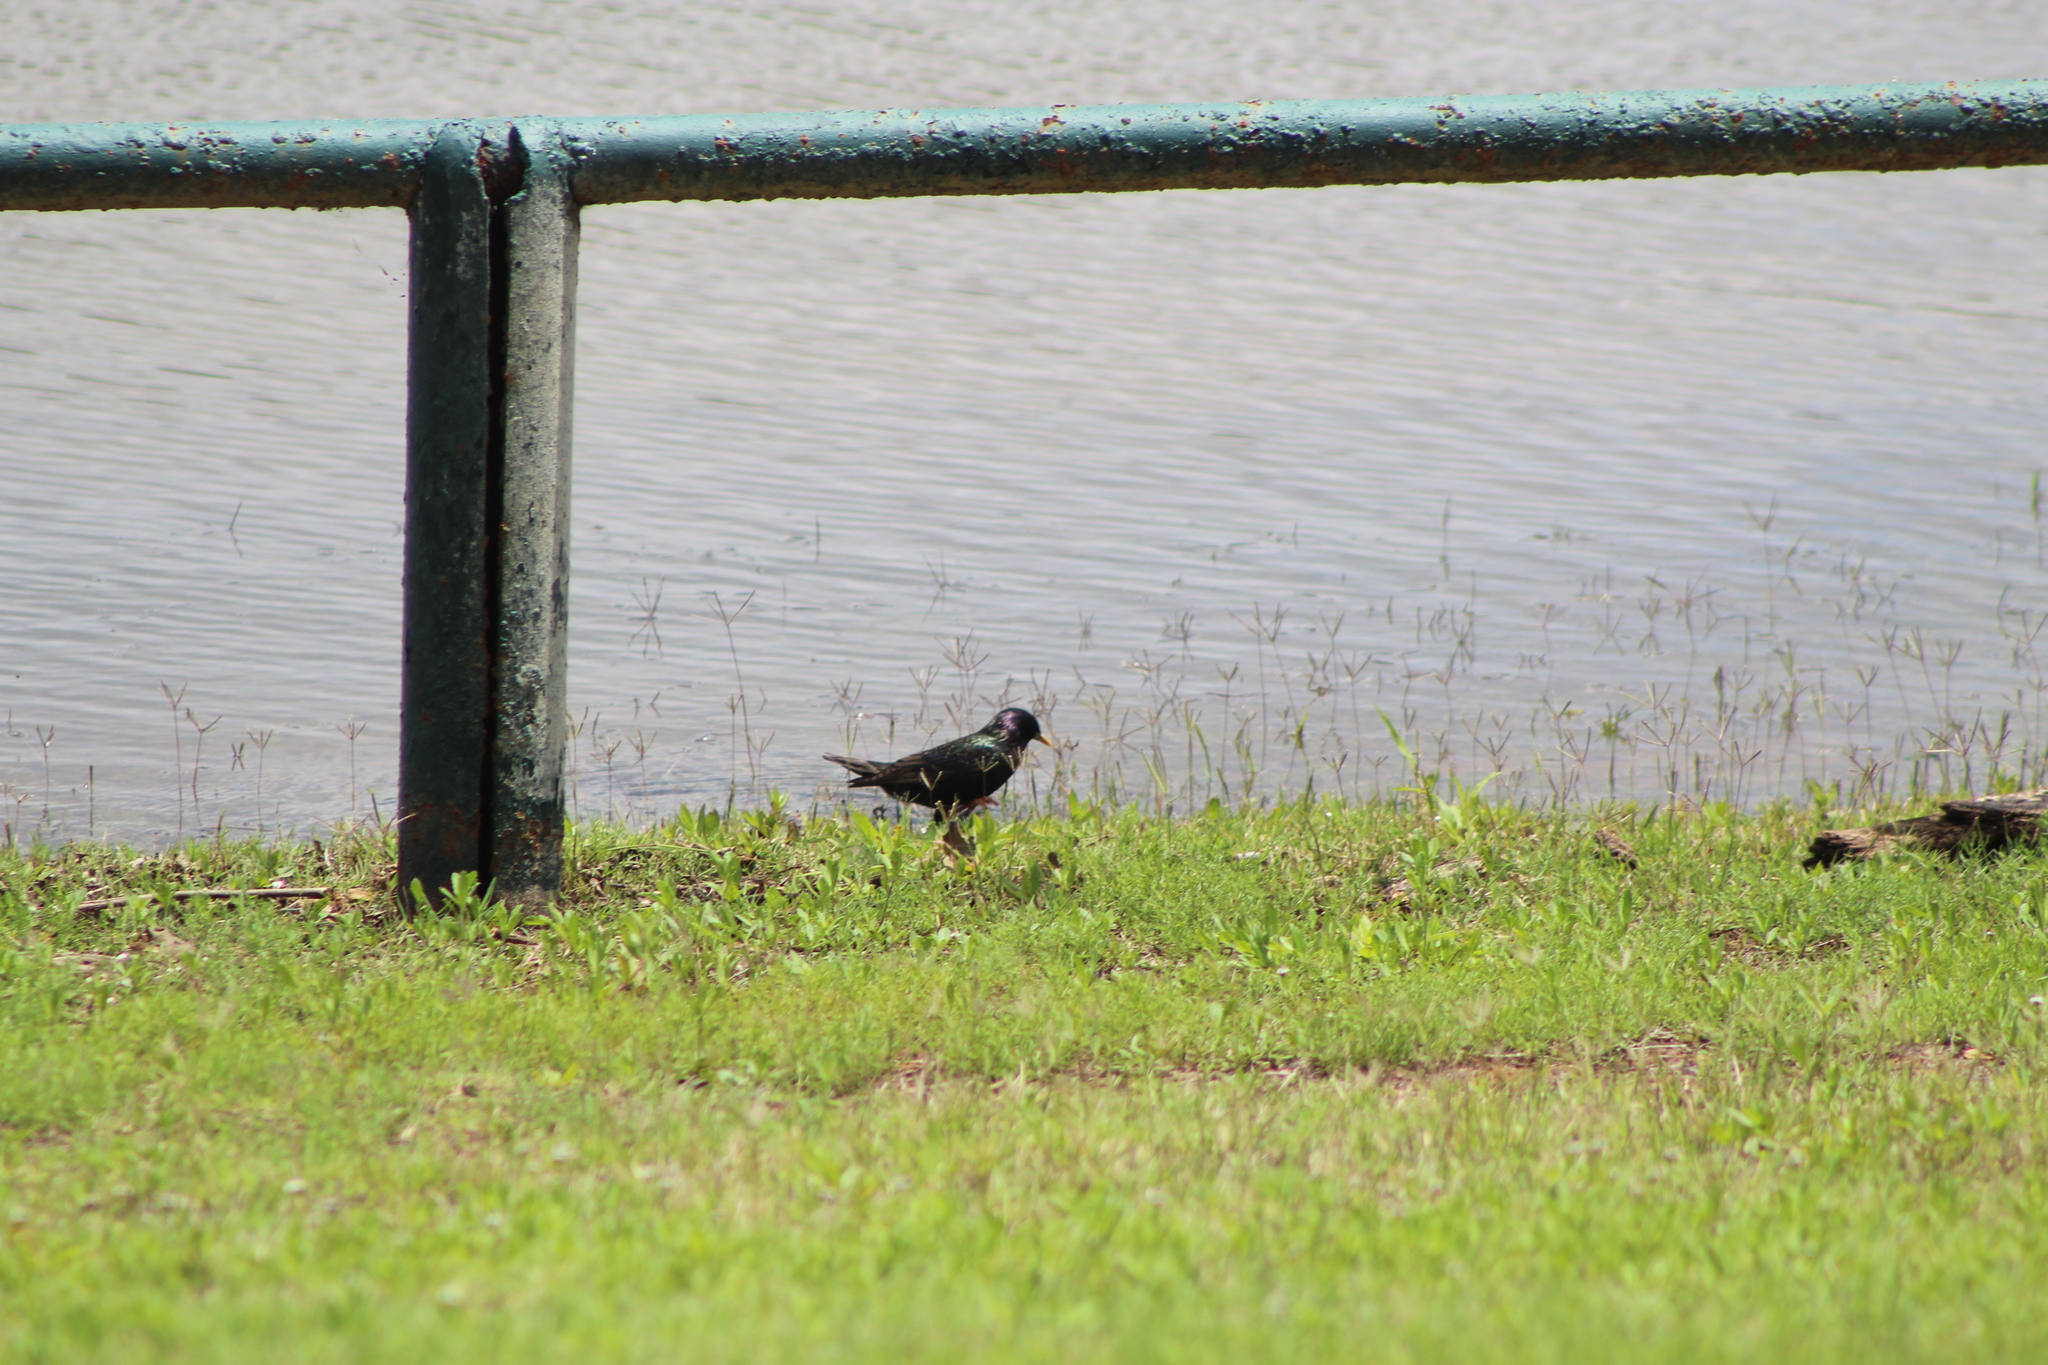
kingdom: Animalia
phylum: Chordata
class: Aves
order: Passeriformes
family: Sturnidae
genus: Sturnus
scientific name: Sturnus vulgaris
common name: Common starling
